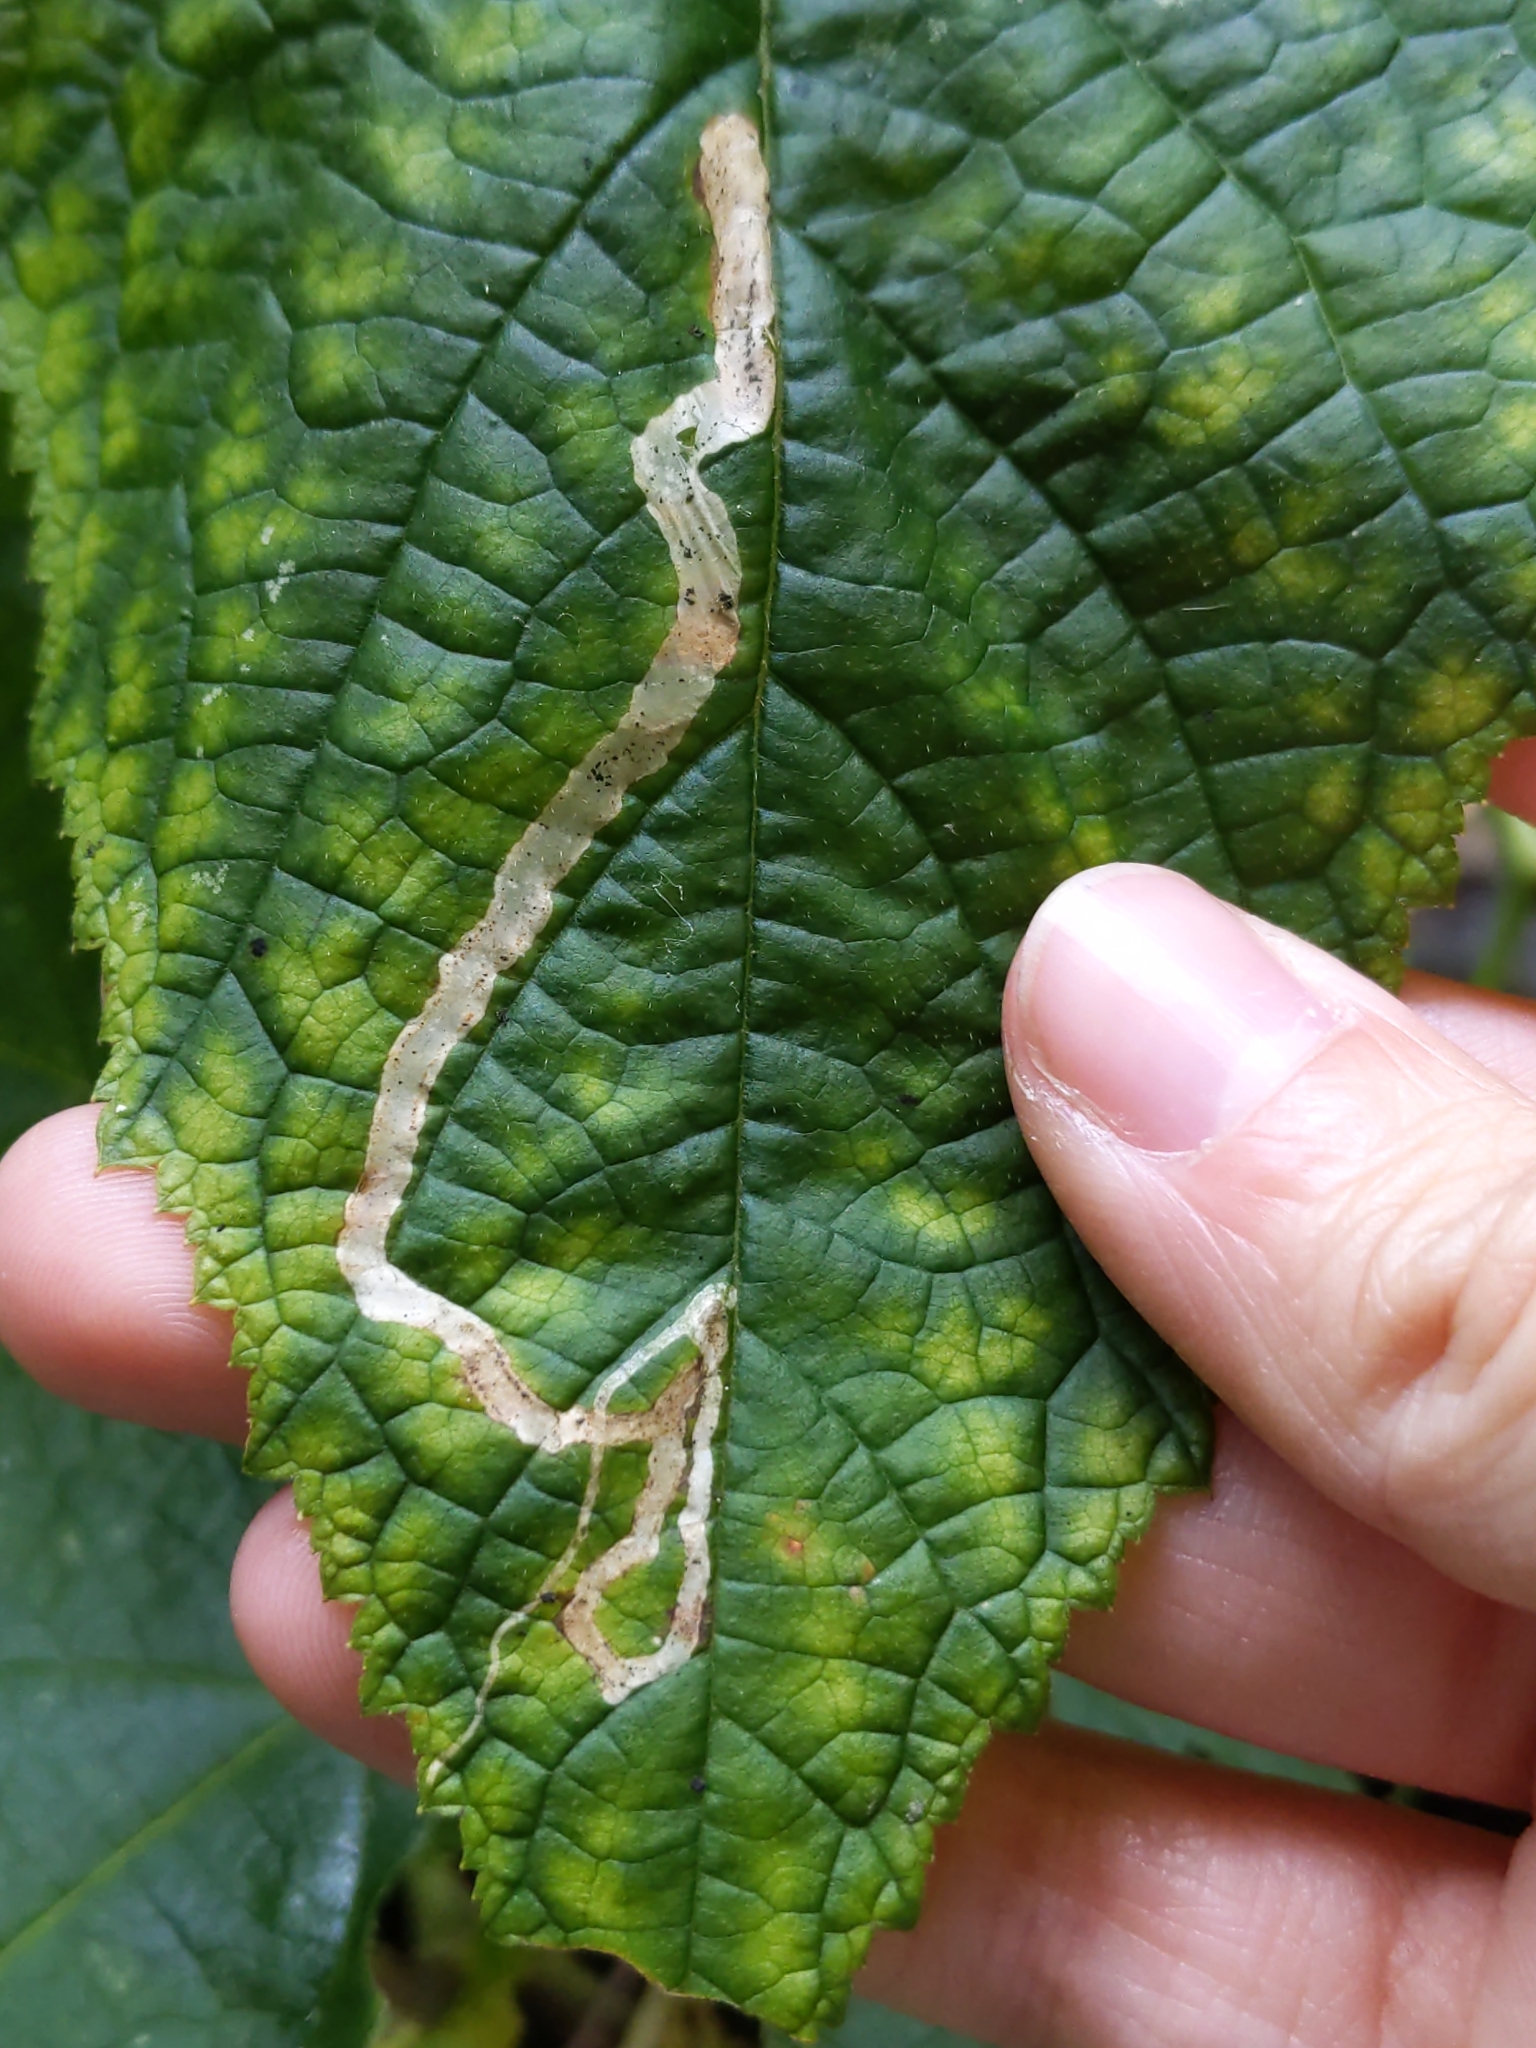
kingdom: Animalia
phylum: Arthropoda
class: Insecta
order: Diptera
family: Agromyzidae
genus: Agromyza
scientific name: Agromyza vockerothi
